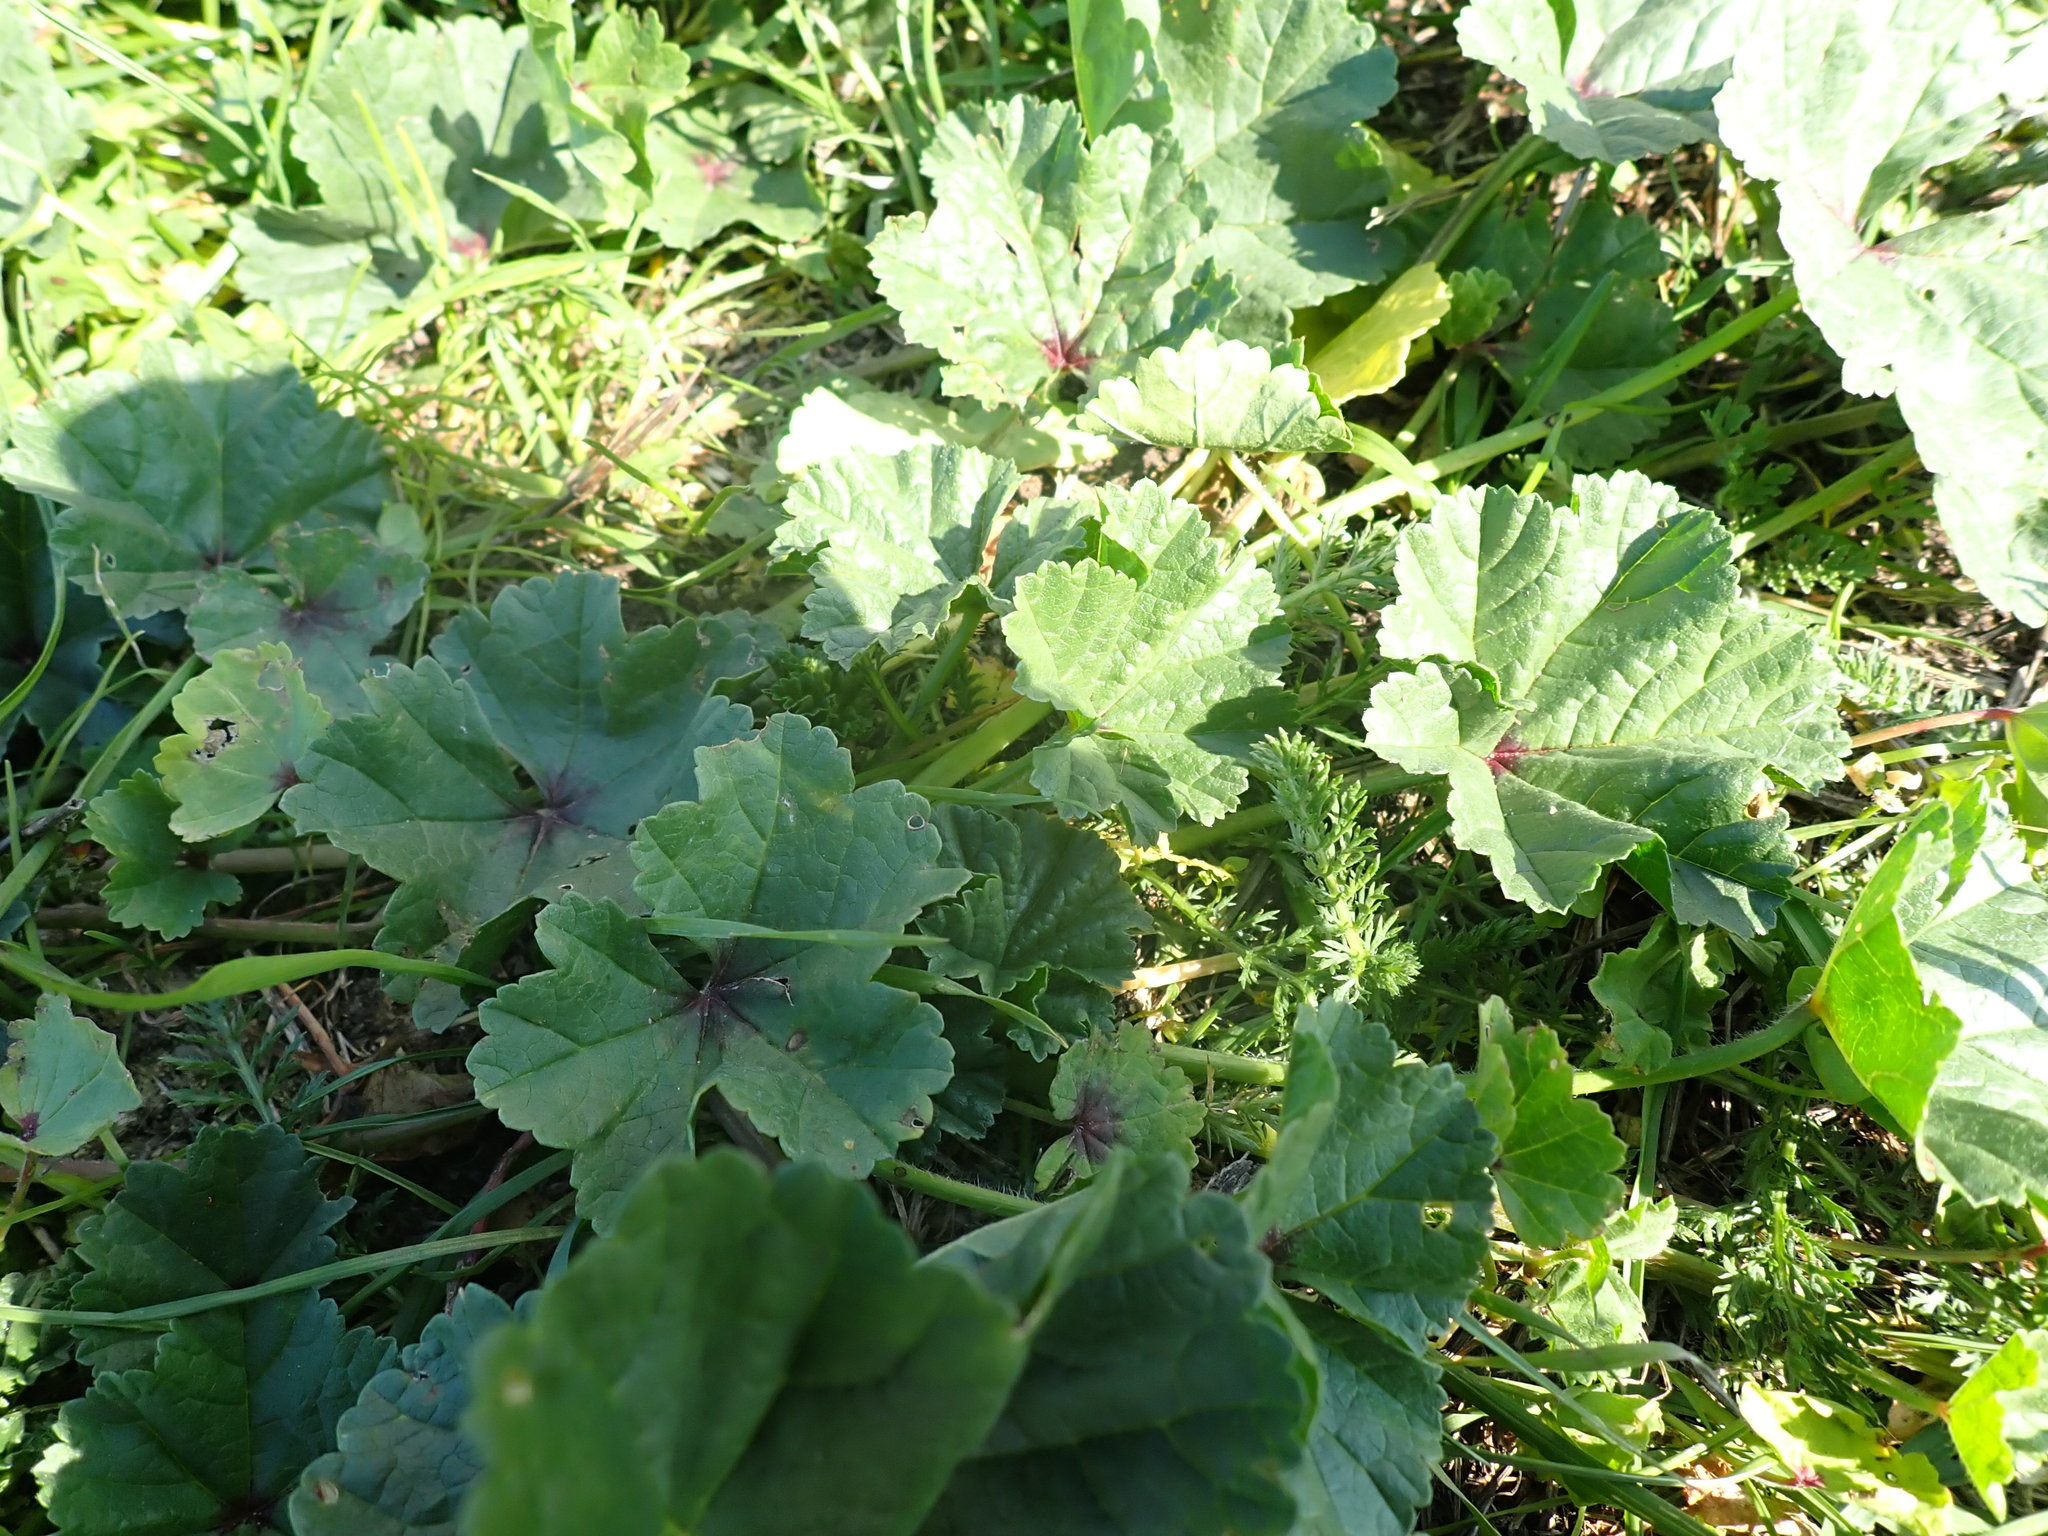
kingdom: Plantae
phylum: Tracheophyta
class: Magnoliopsida
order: Malvales
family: Malvaceae
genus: Malva
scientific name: Malva sylvestris
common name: Common mallow
